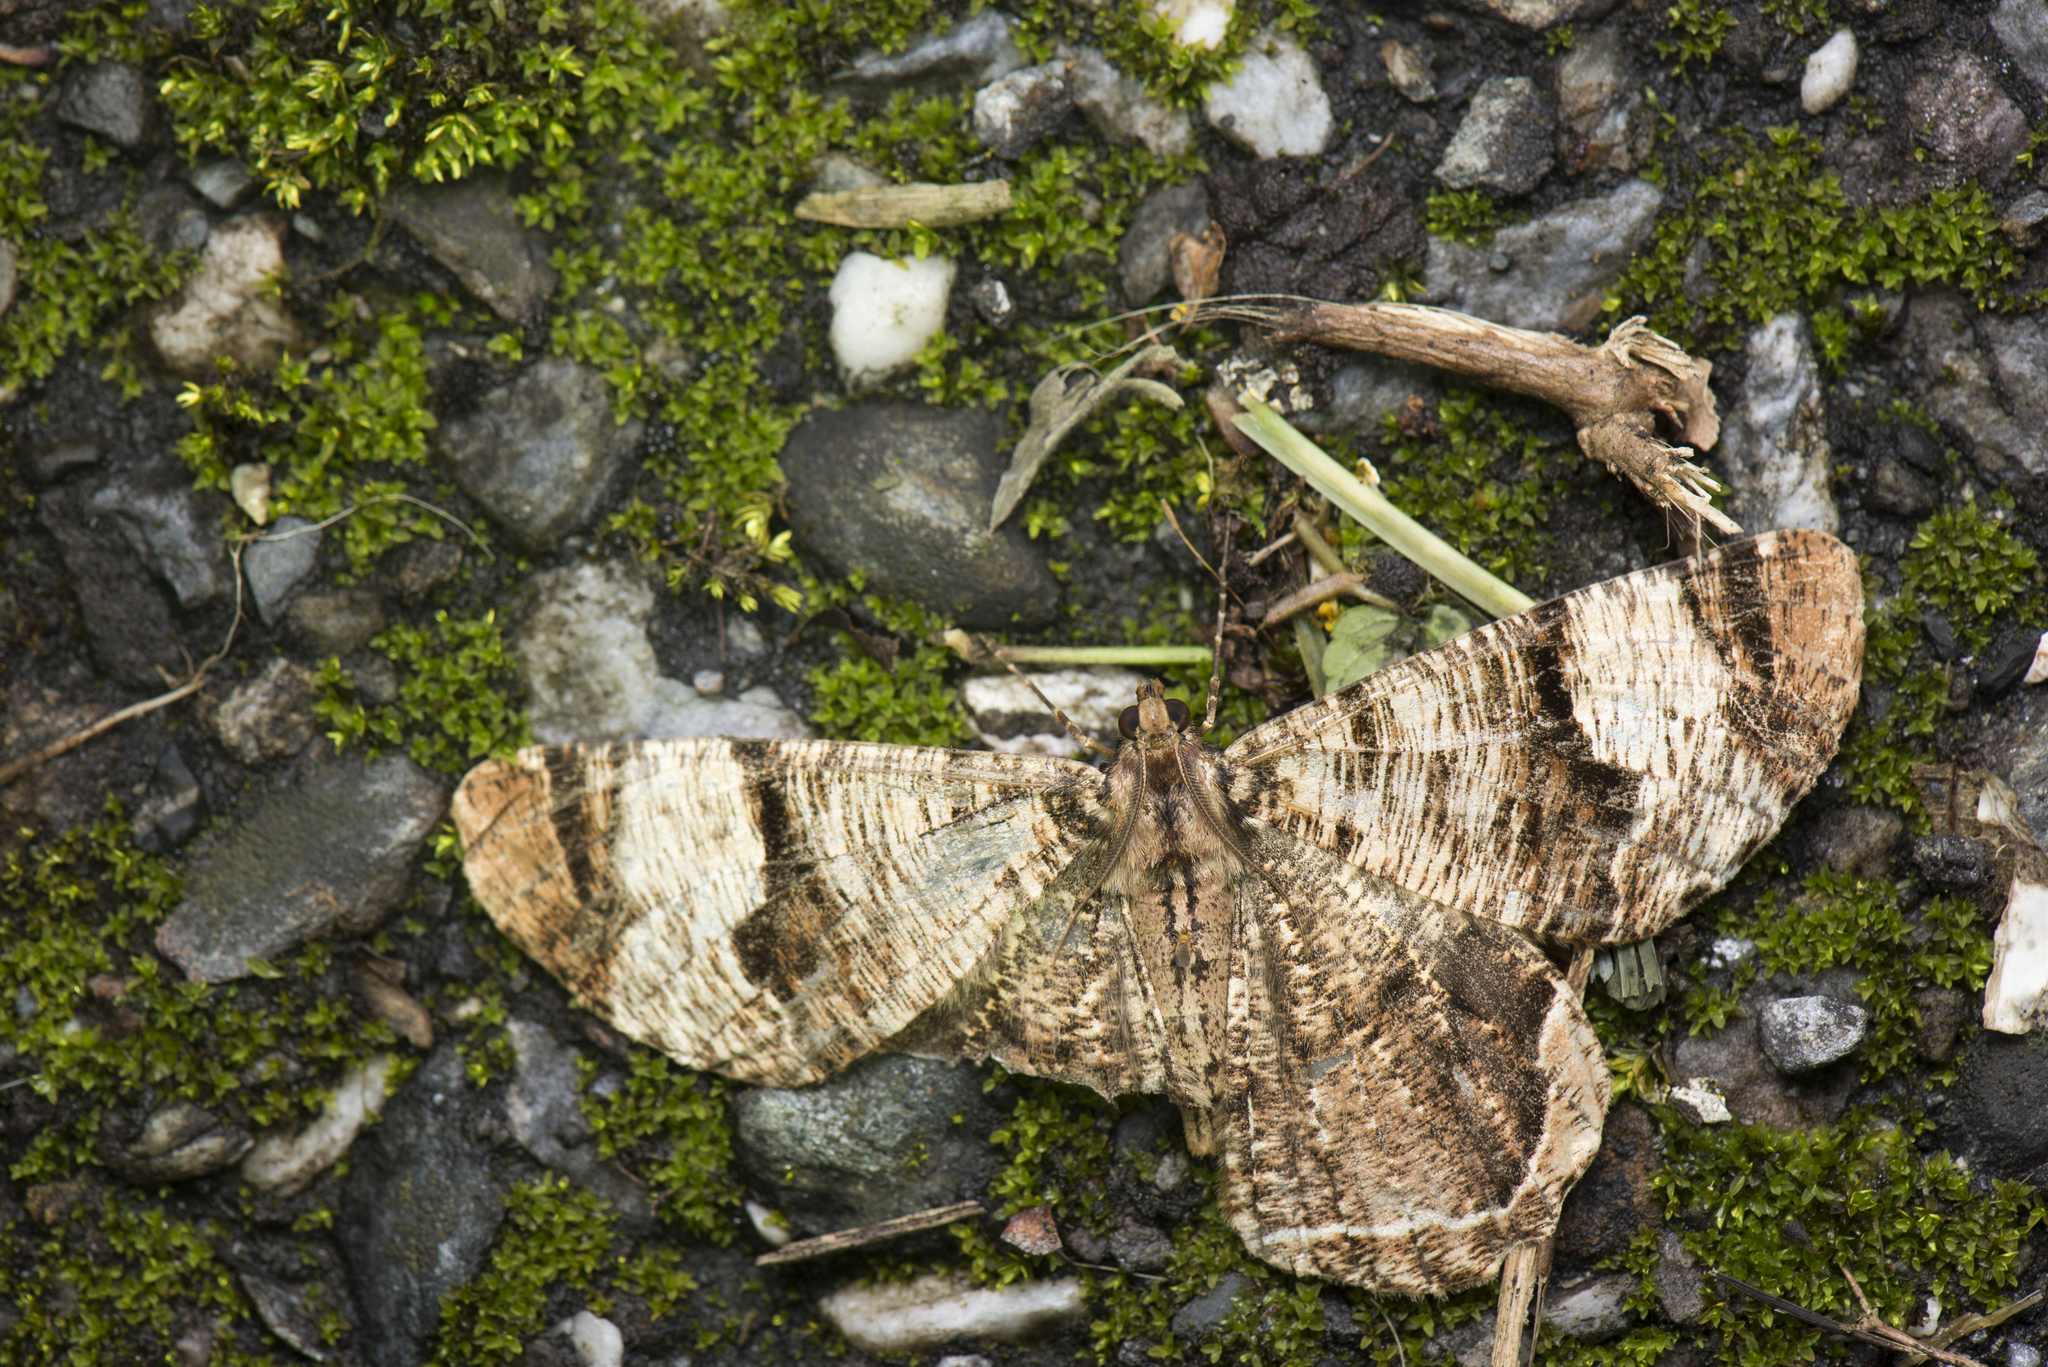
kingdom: Animalia
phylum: Arthropoda
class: Insecta
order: Lepidoptera
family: Geometridae
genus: Xandrames
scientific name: Xandrames latiferaria
